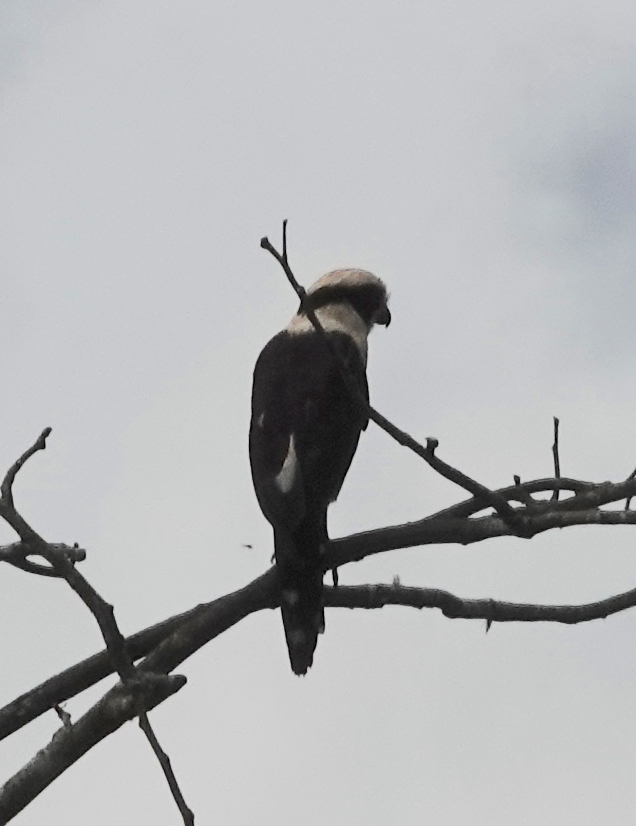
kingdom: Animalia
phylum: Chordata
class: Aves
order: Falconiformes
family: Falconidae
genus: Herpetotheres
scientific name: Herpetotheres cachinnans
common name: Laughing falcon
